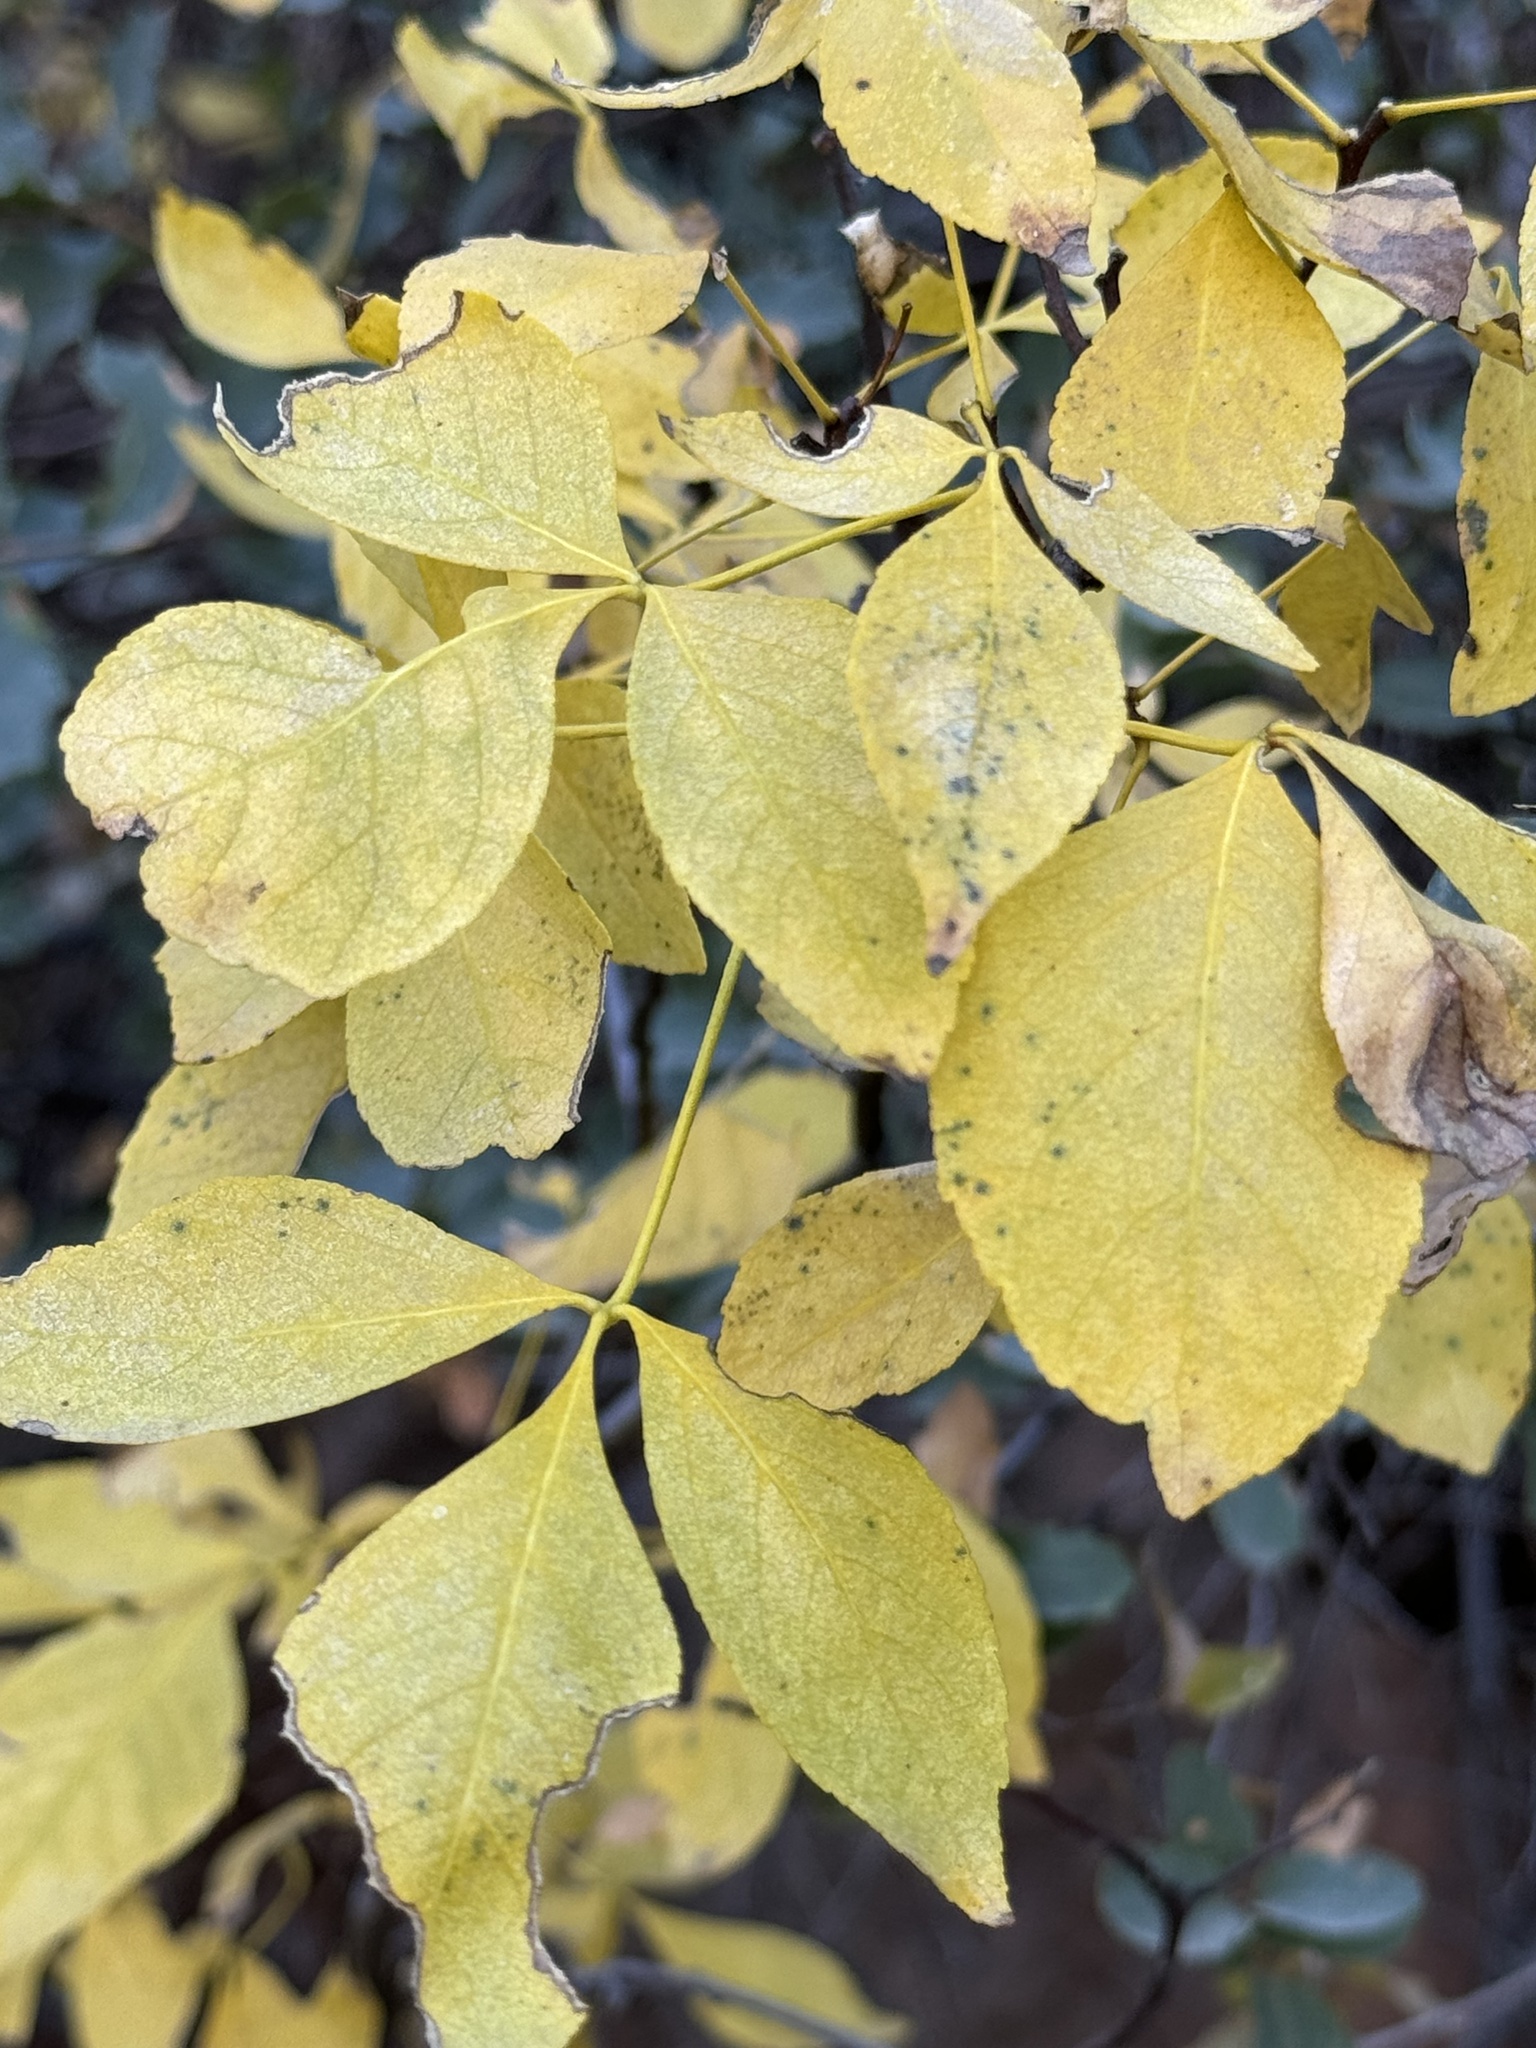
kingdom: Plantae
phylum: Tracheophyta
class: Magnoliopsida
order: Sapindales
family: Rutaceae
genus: Ptelea
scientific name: Ptelea trifoliata
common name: Common hop-tree
